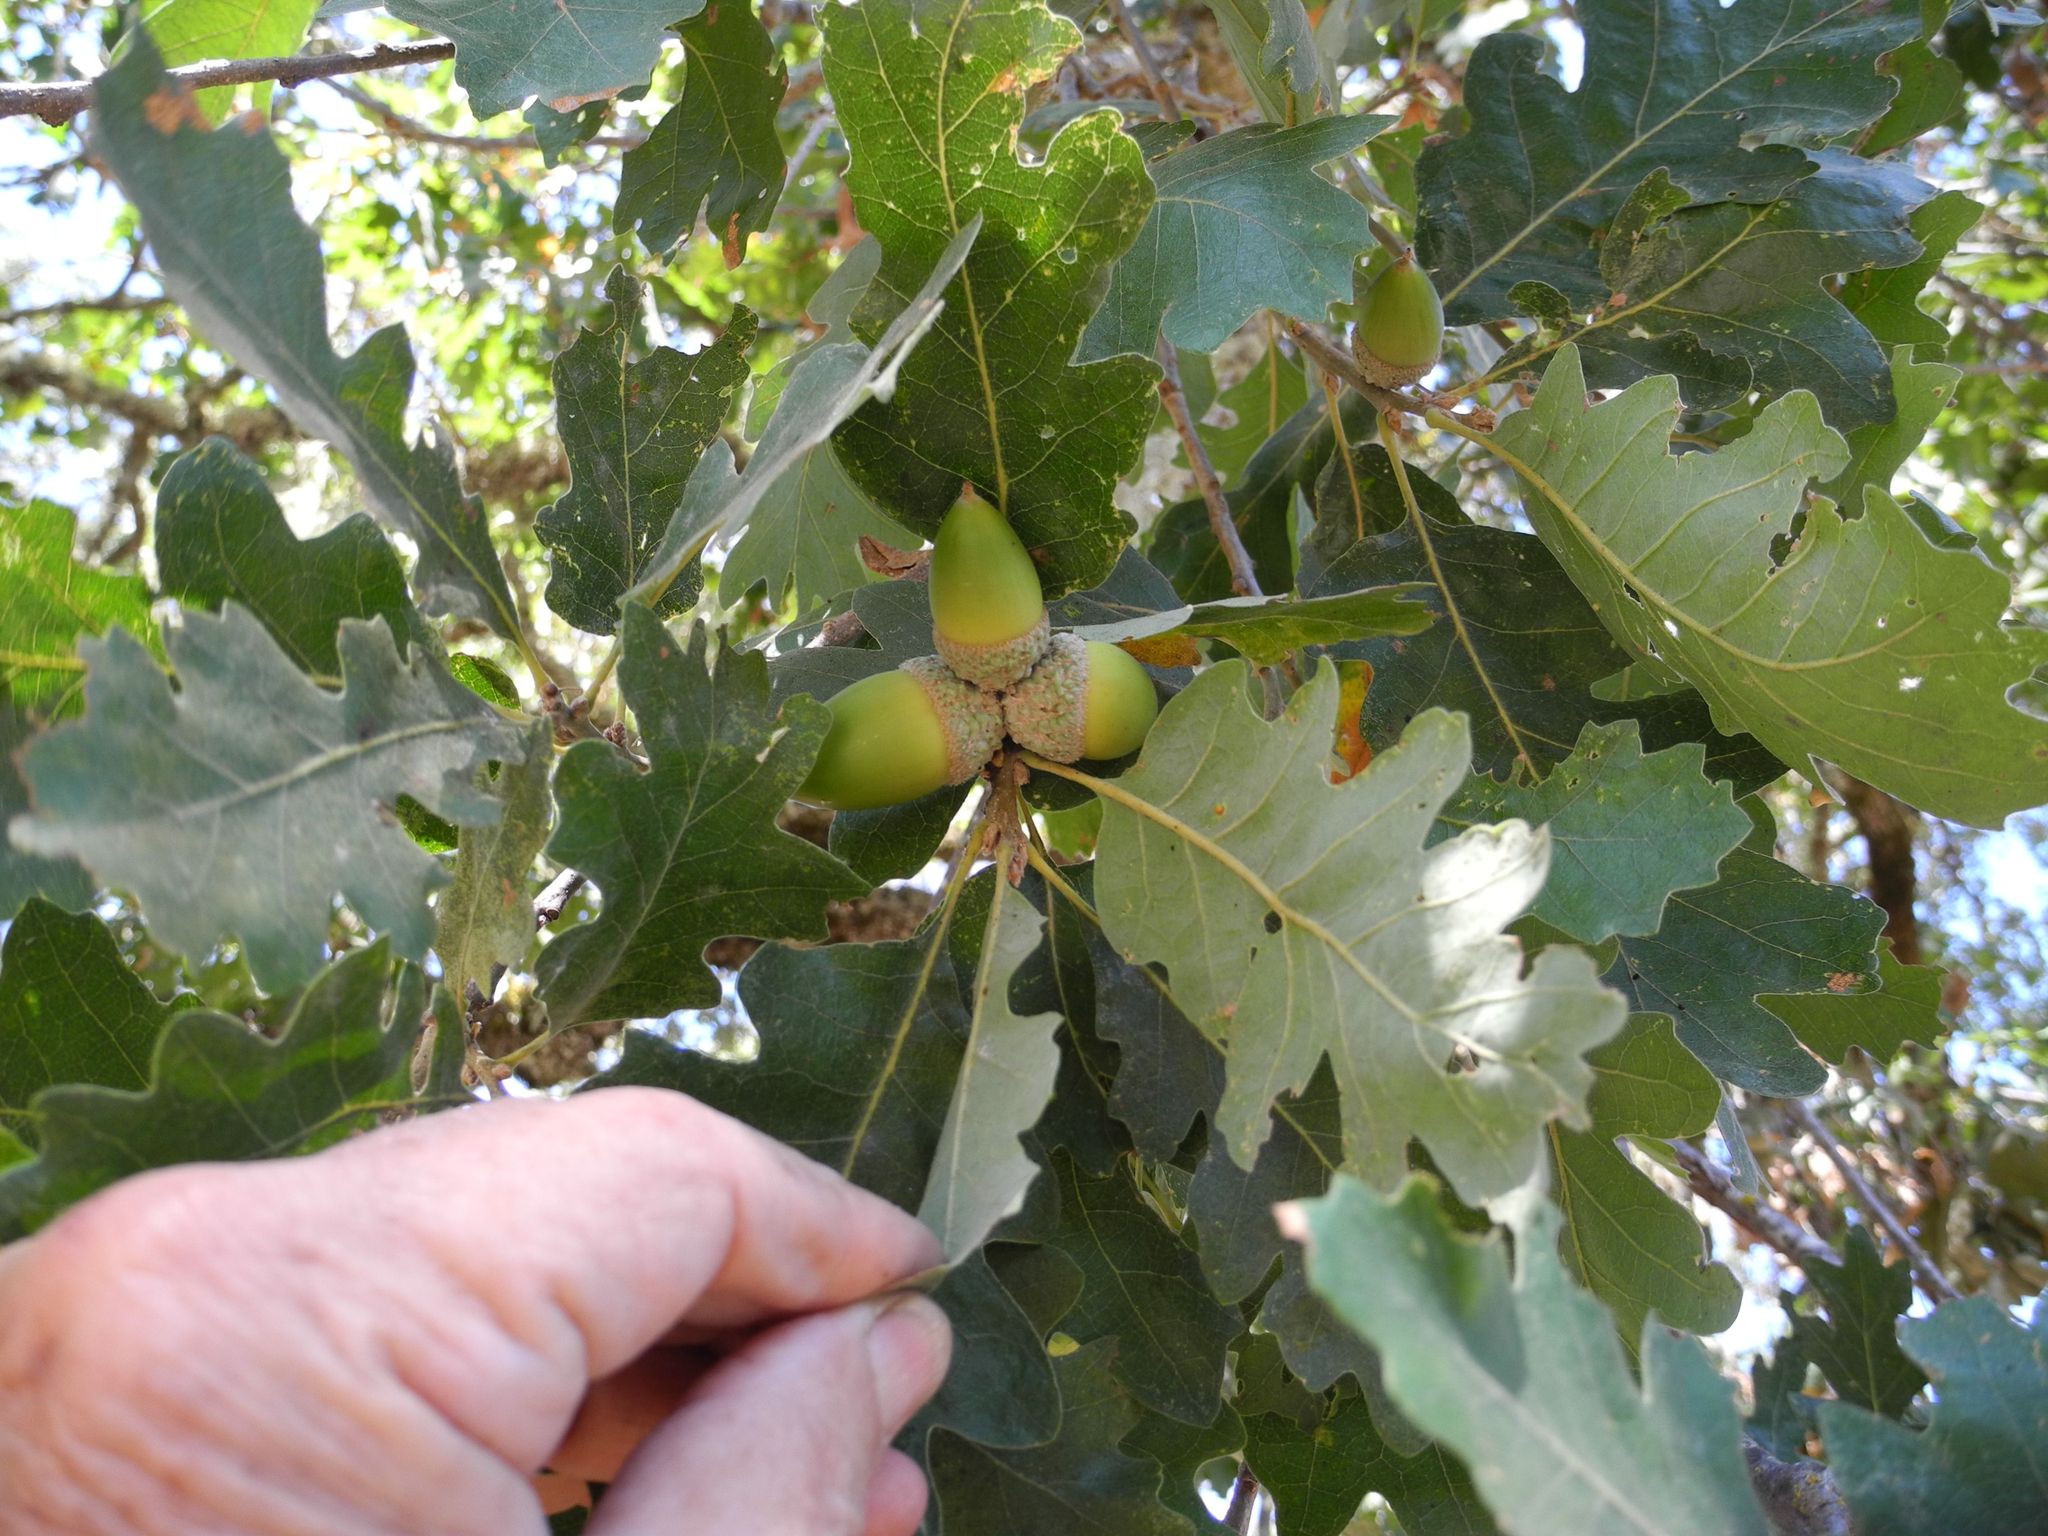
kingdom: Plantae
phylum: Tracheophyta
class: Magnoliopsida
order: Fagales
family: Fagaceae
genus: Quercus
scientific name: Quercus lobata
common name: Valley oak
